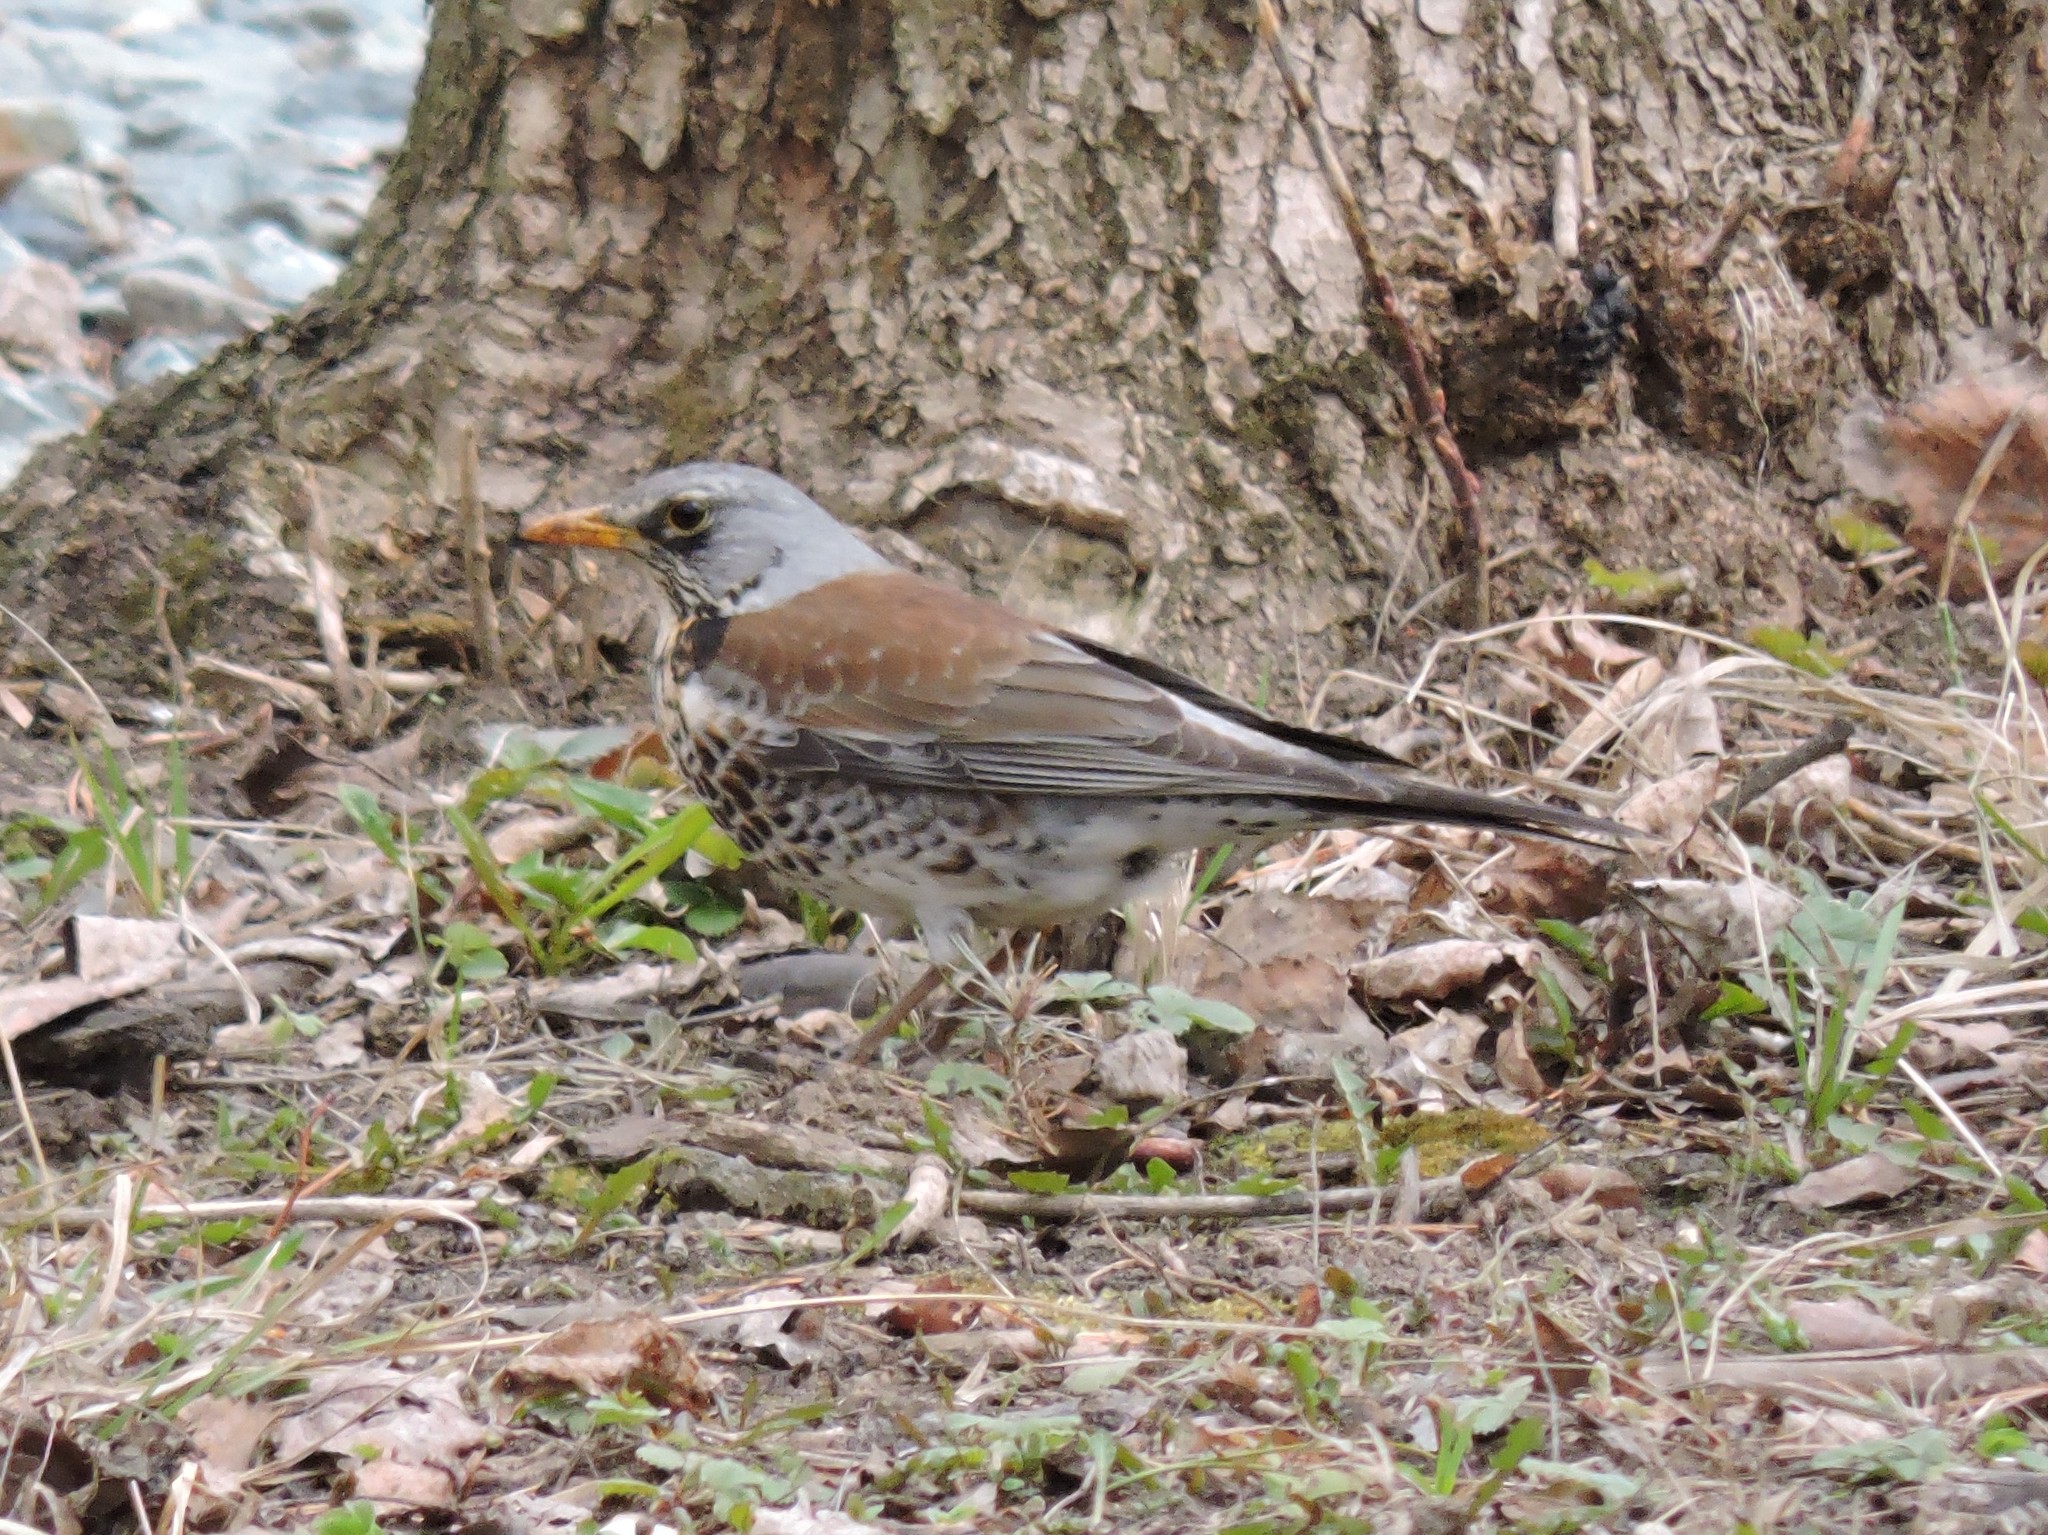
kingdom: Animalia
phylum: Chordata
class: Aves
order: Passeriformes
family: Turdidae
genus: Turdus
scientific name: Turdus pilaris
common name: Fieldfare
